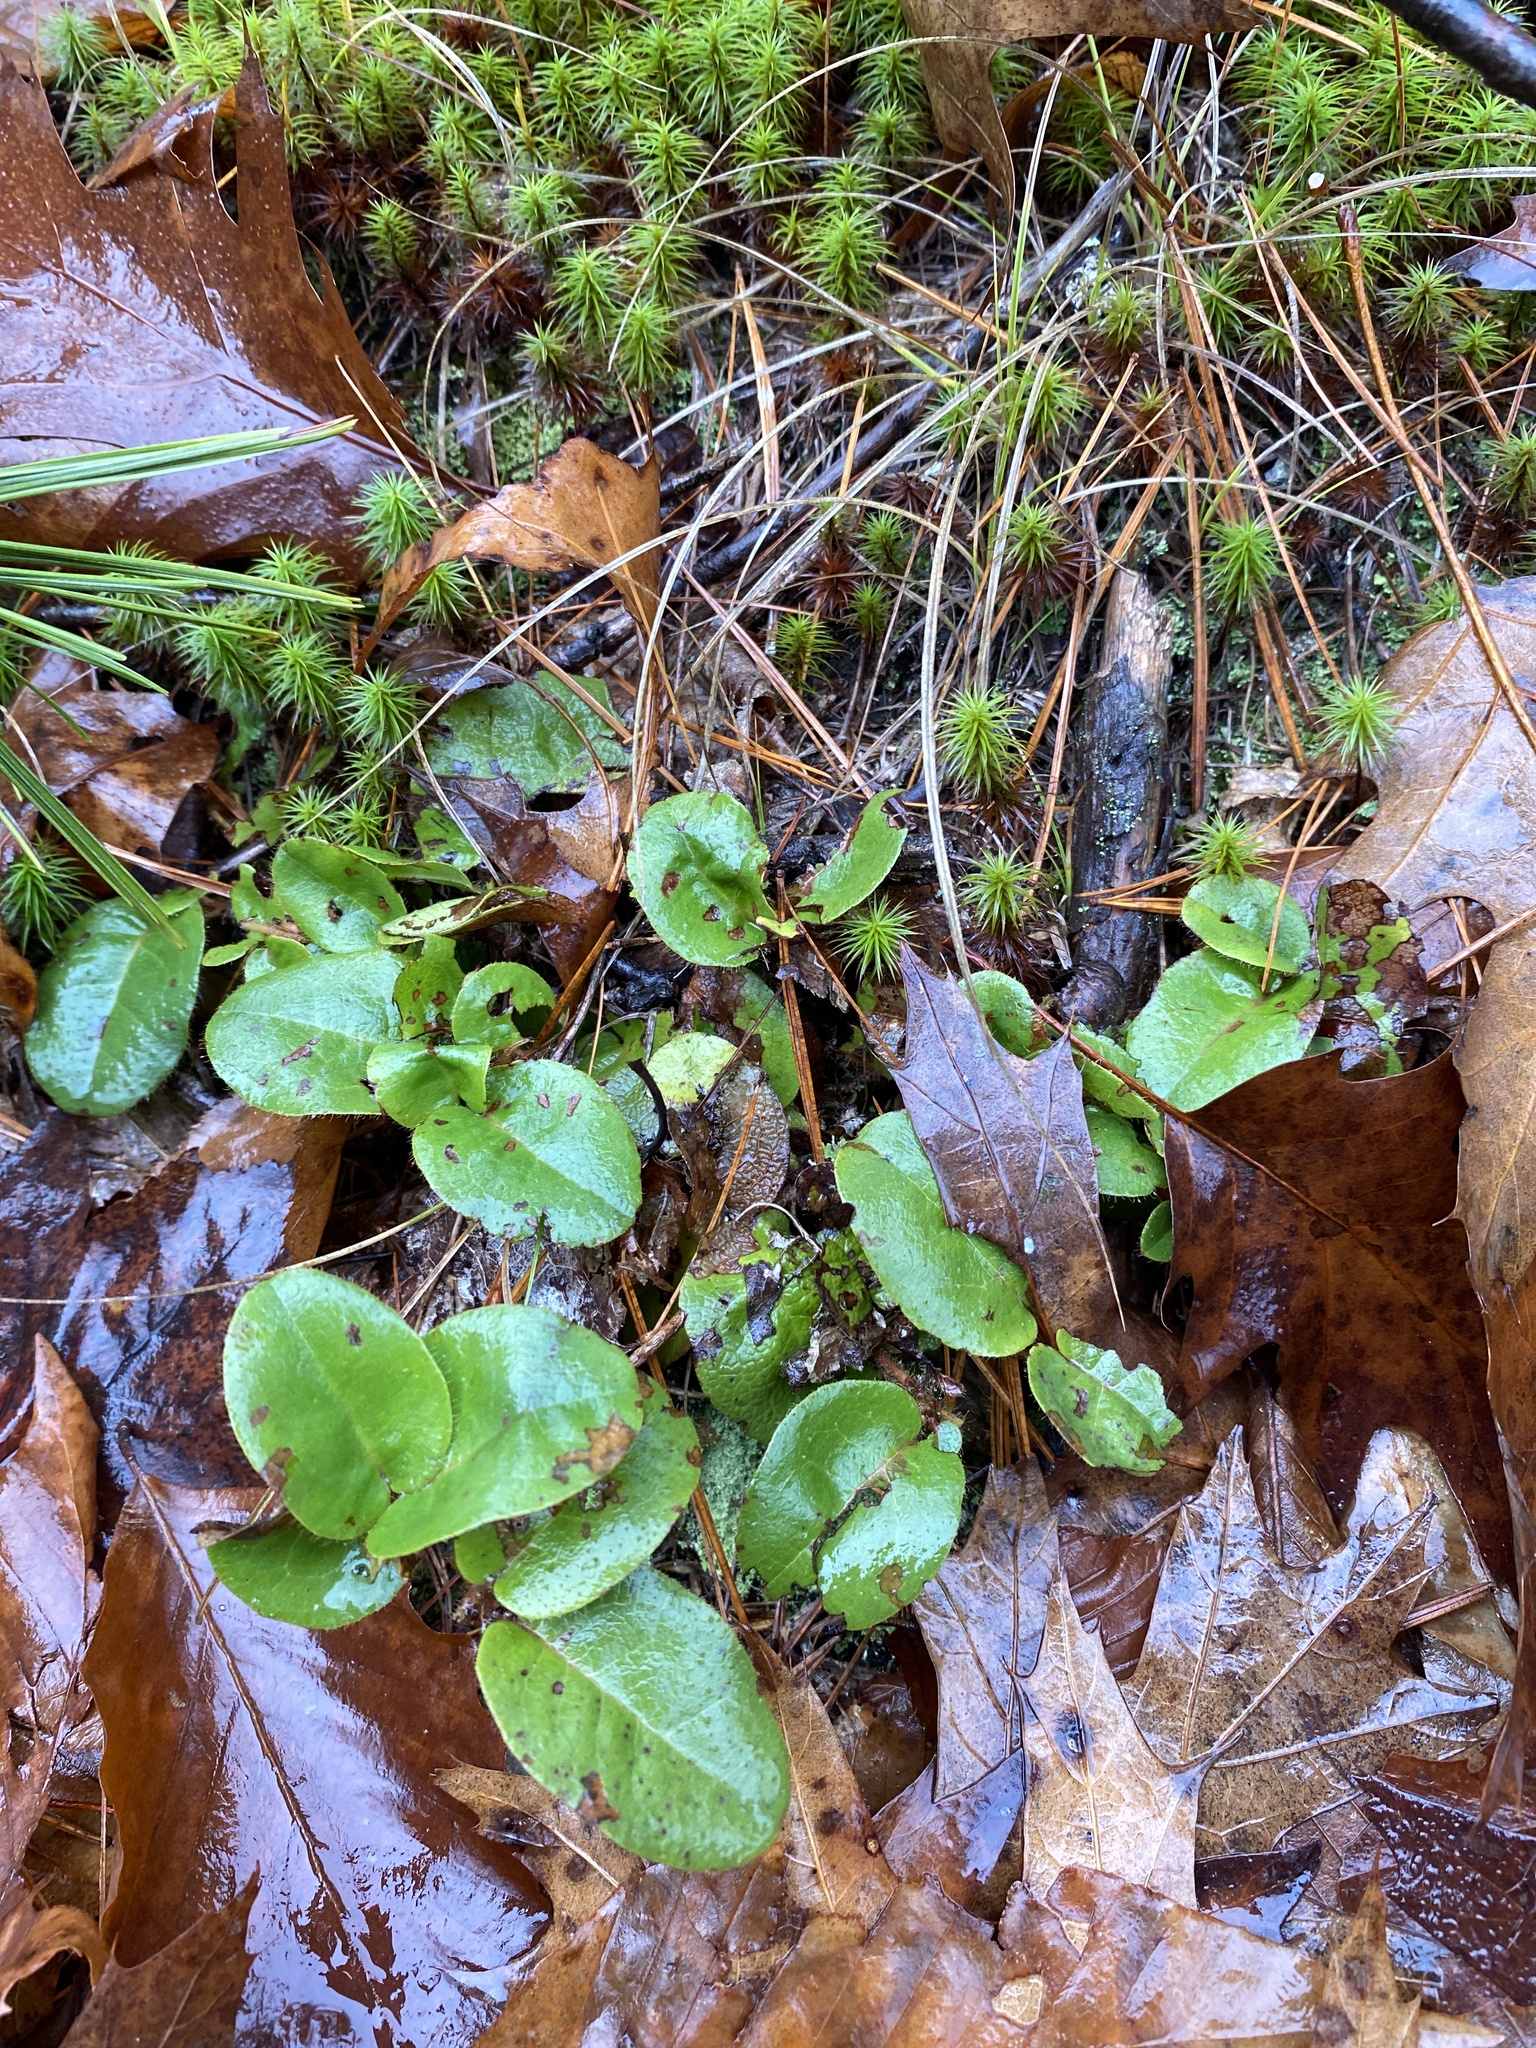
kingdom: Plantae
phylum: Tracheophyta
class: Magnoliopsida
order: Ericales
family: Ericaceae
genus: Epigaea
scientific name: Epigaea repens
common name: Gravelroot
